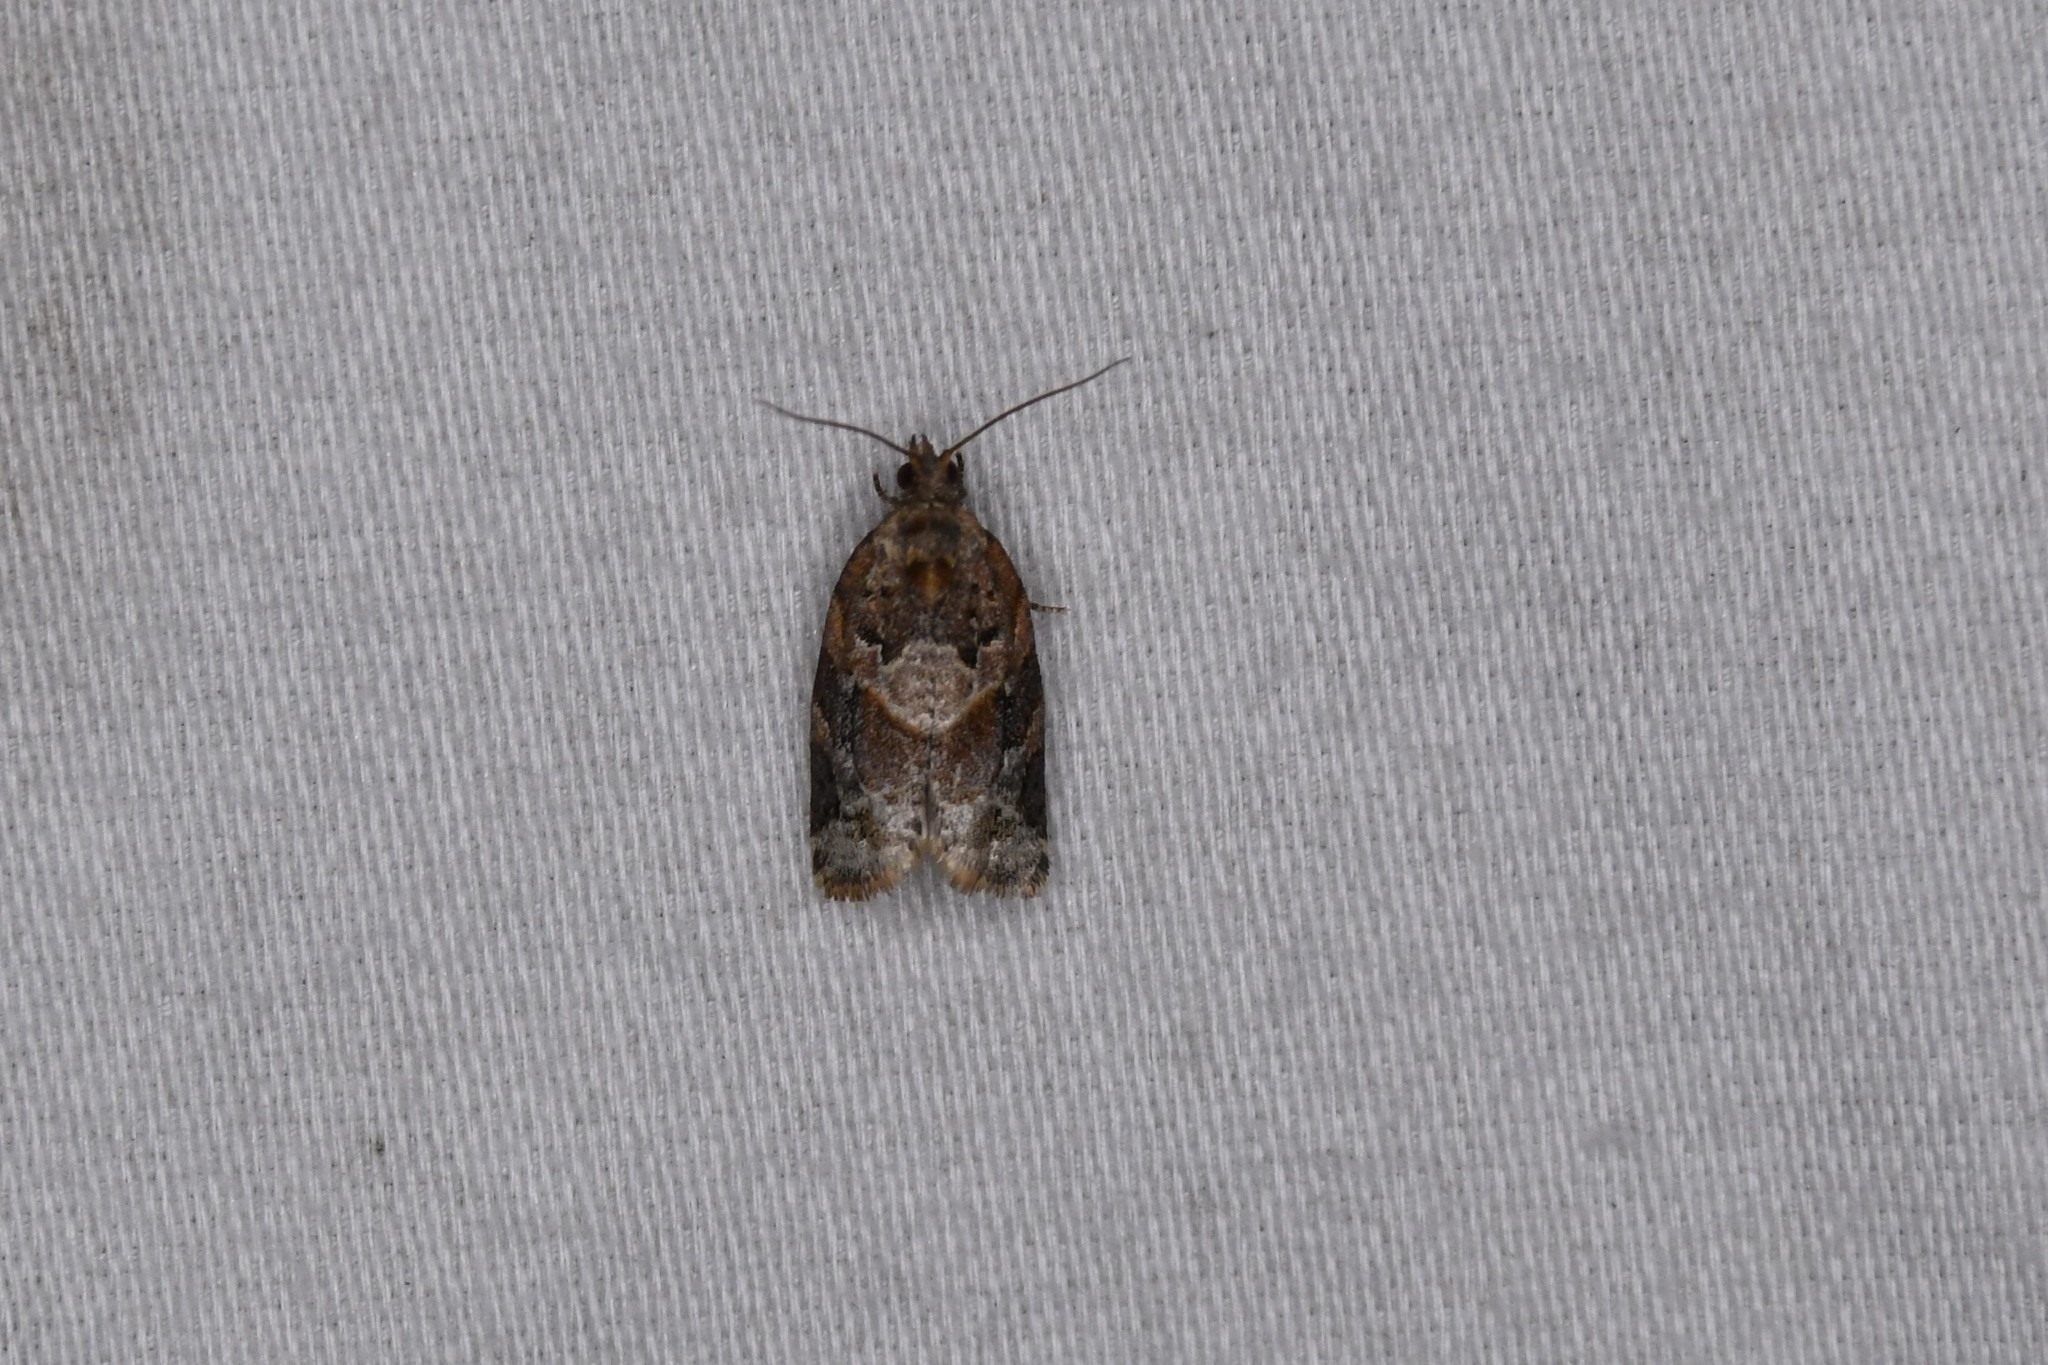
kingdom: Animalia
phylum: Arthropoda
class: Insecta
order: Lepidoptera
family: Tortricidae
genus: Argyrotaenia
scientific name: Argyrotaenia velutinana
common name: Red-banded leafroller moth
